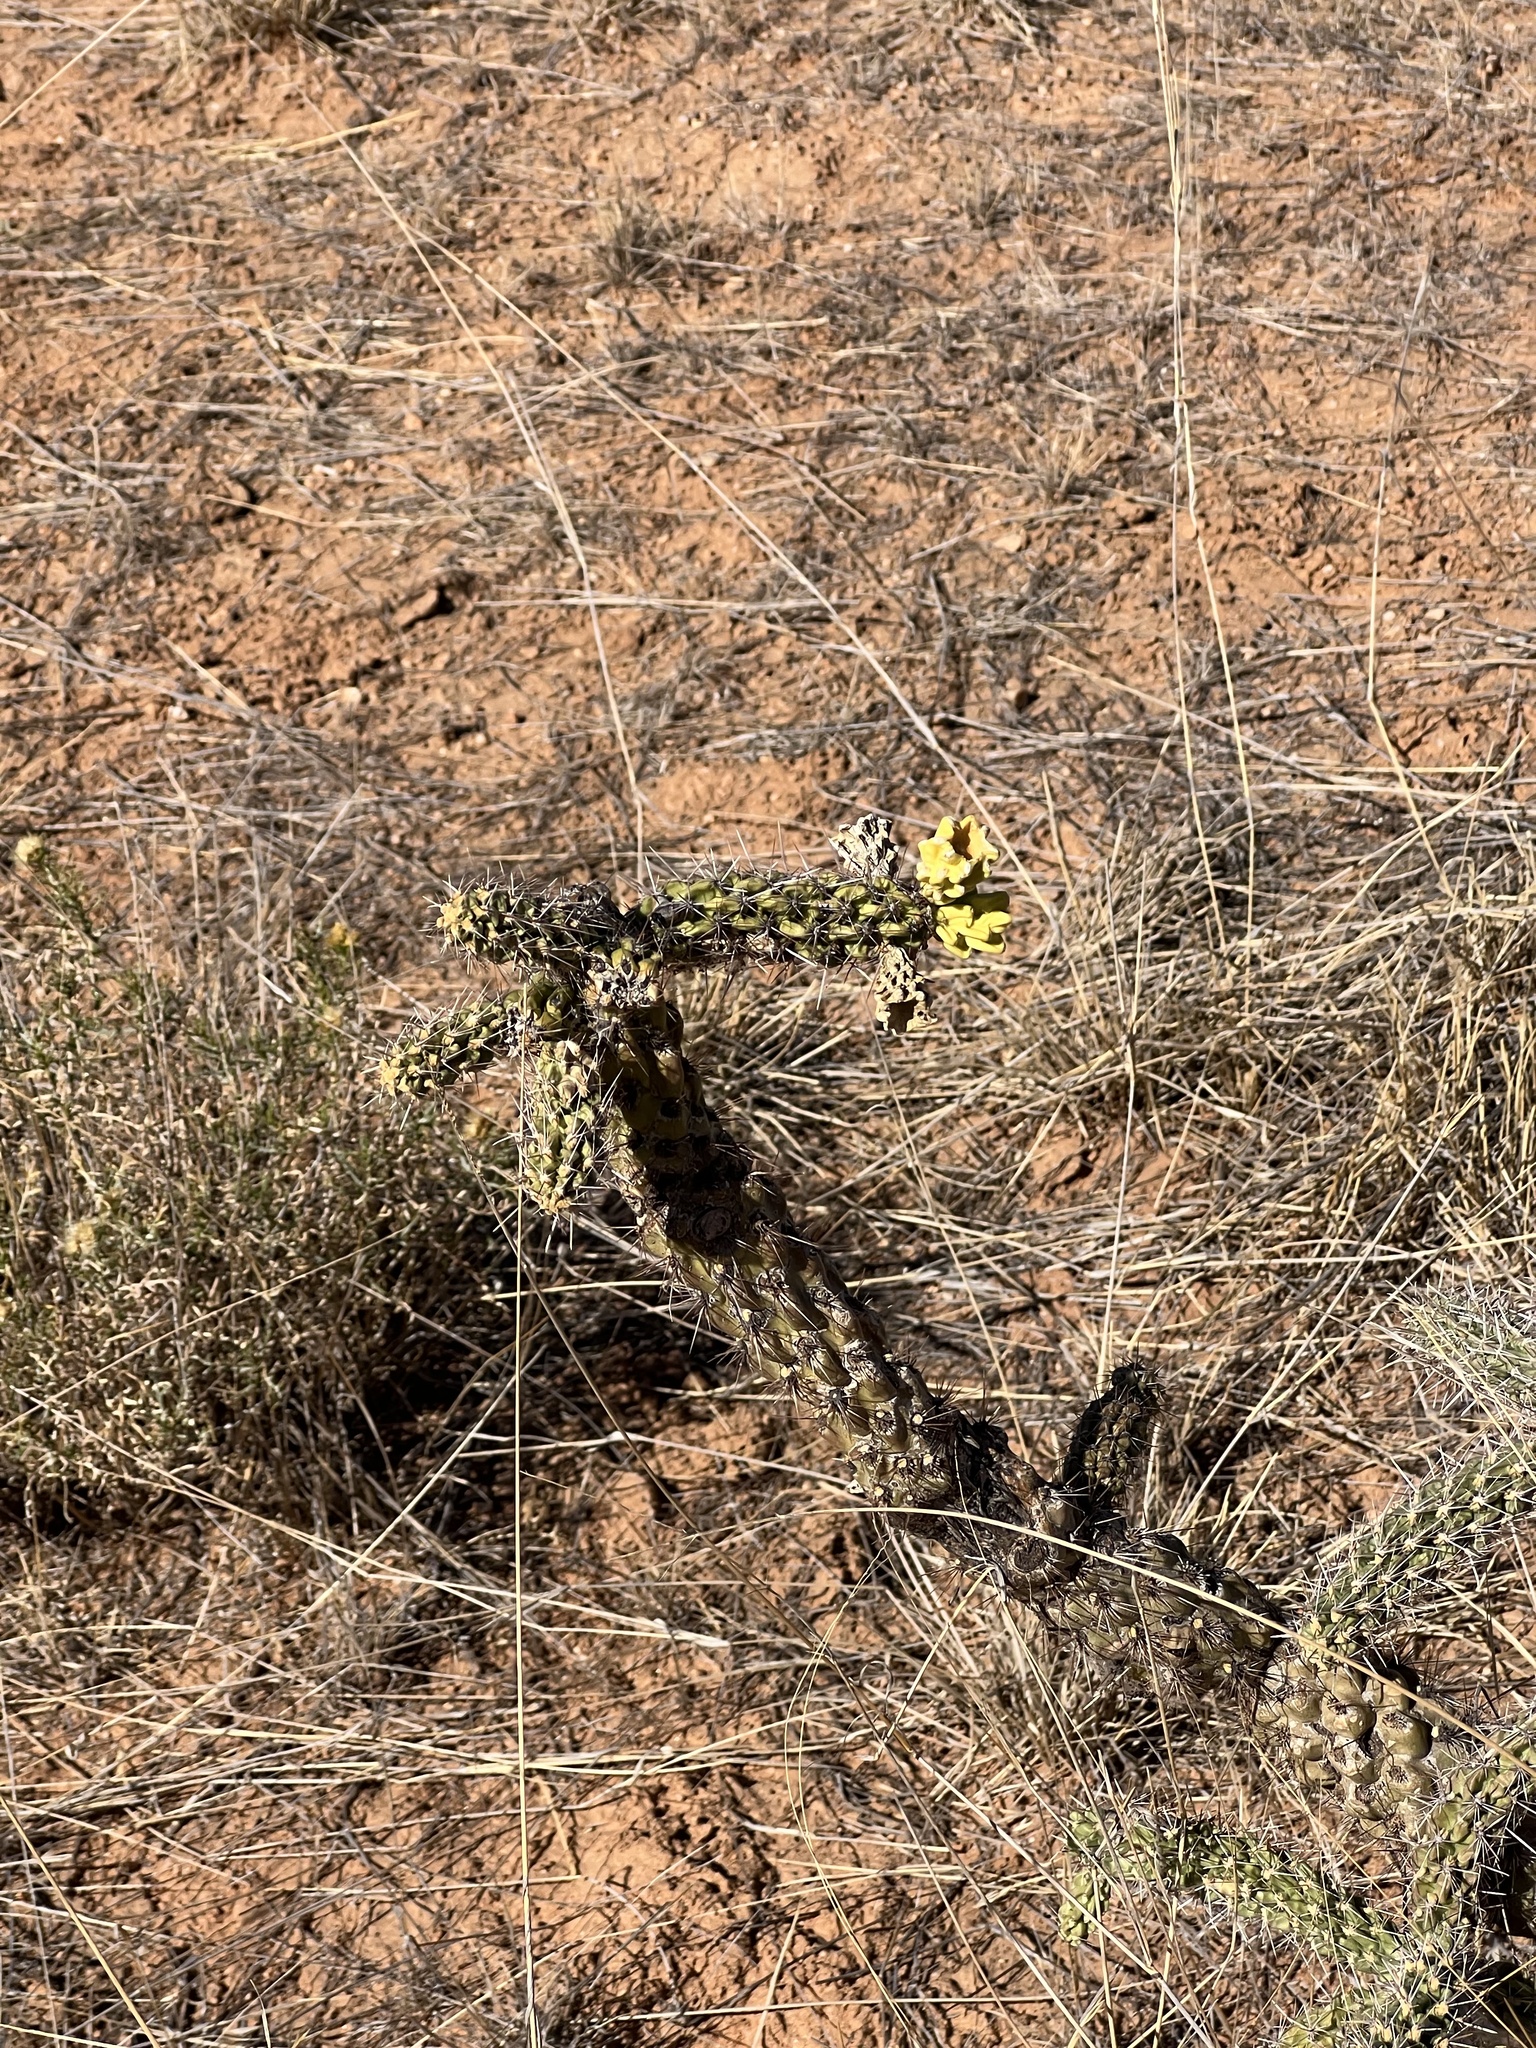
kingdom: Plantae
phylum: Tracheophyta
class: Magnoliopsida
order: Caryophyllales
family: Cactaceae
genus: Cylindropuntia
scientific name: Cylindropuntia imbricata
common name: Candelabrum cactus
